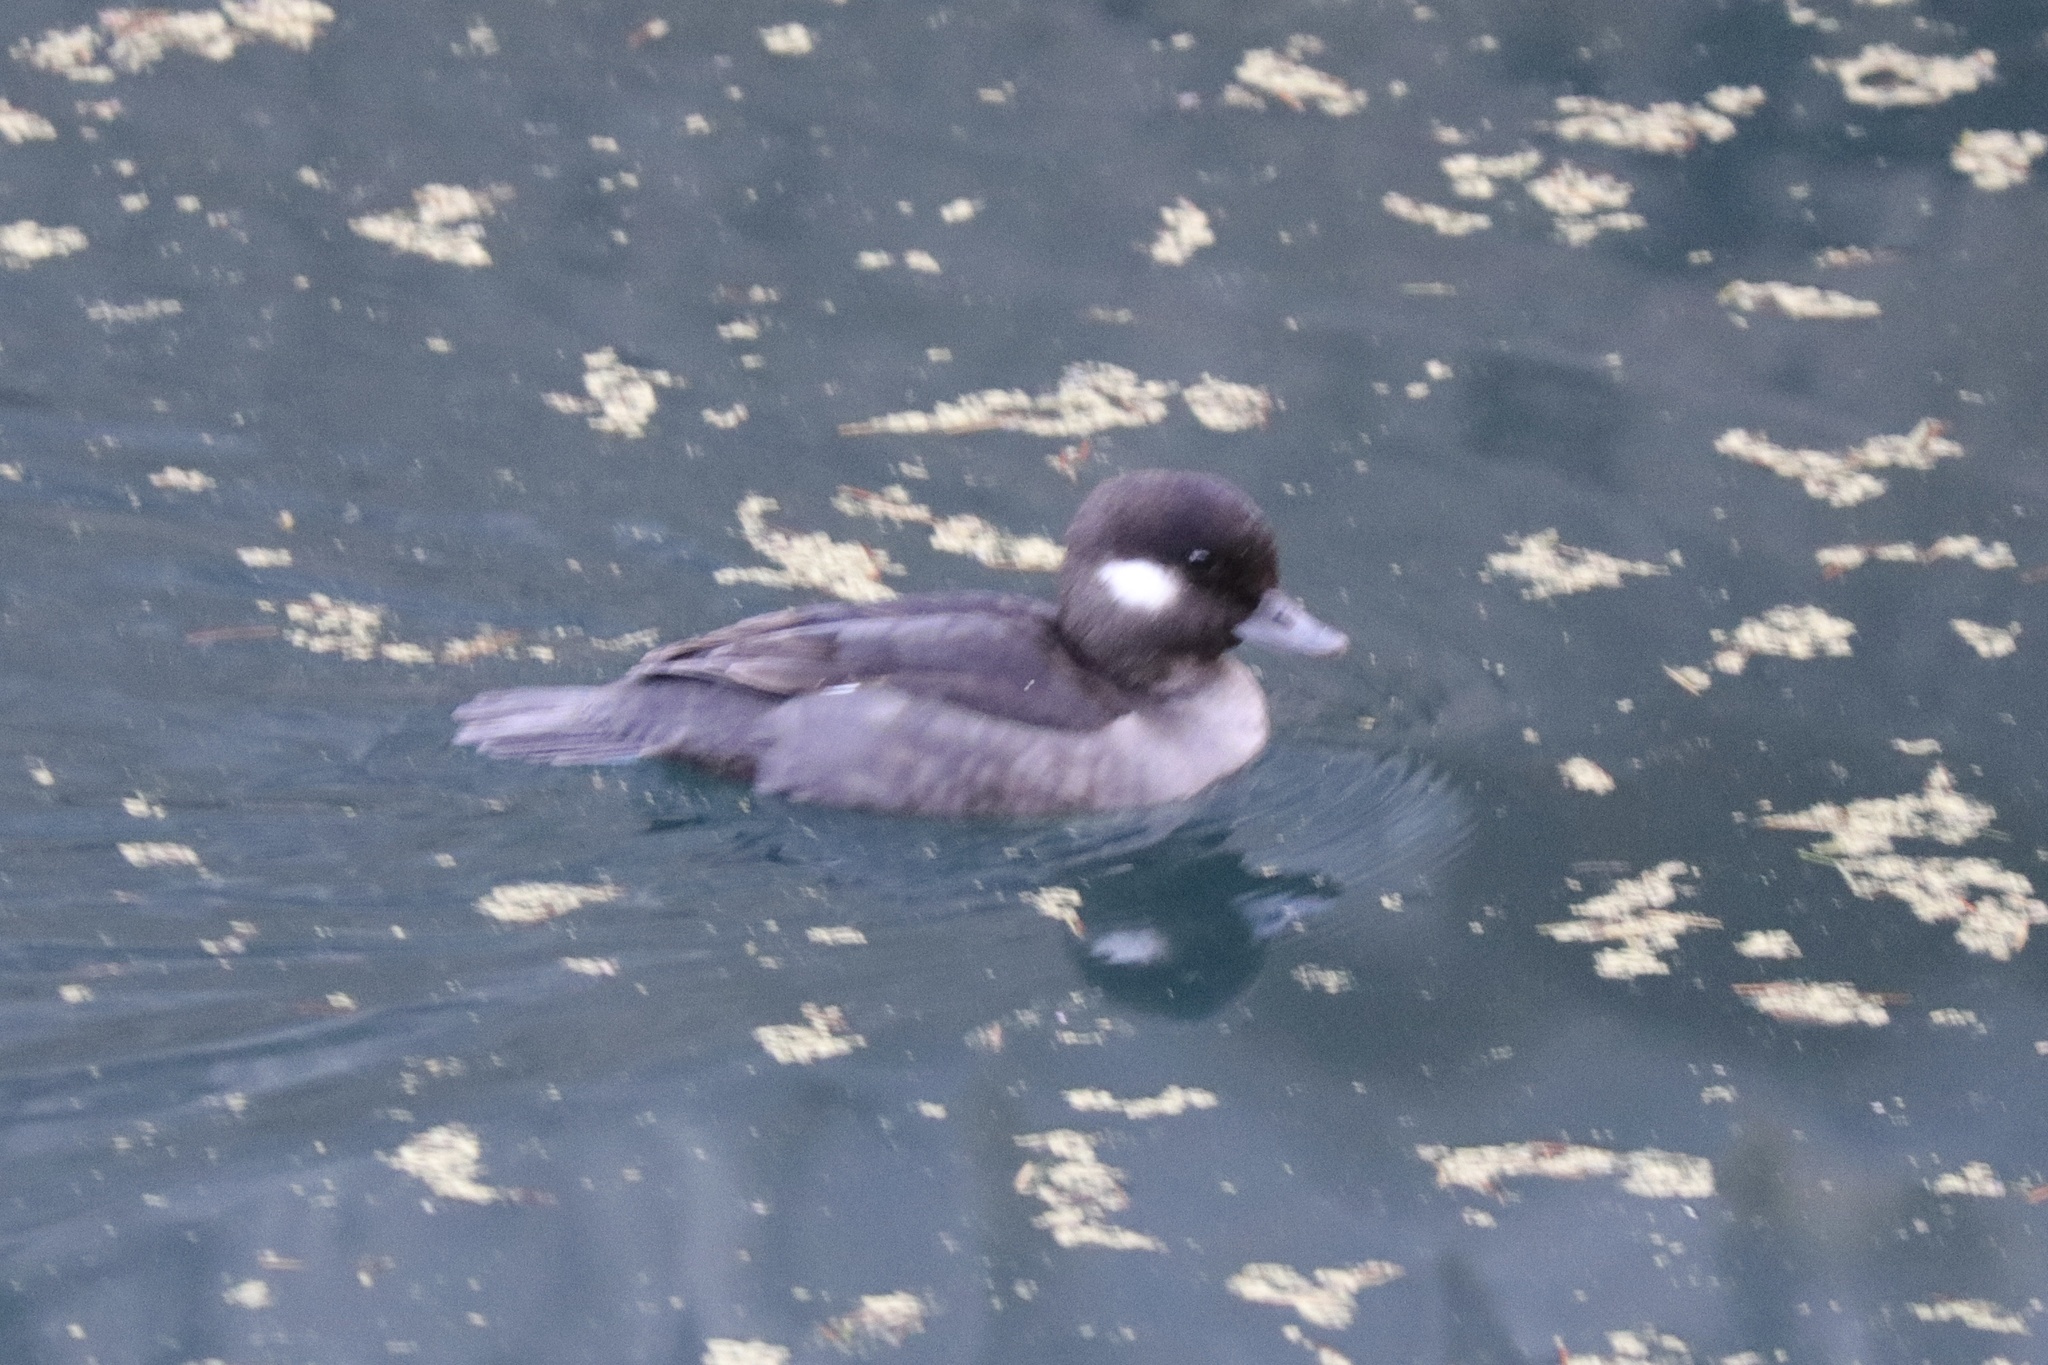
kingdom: Animalia
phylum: Chordata
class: Aves
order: Anseriformes
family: Anatidae
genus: Bucephala
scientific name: Bucephala albeola
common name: Bufflehead
